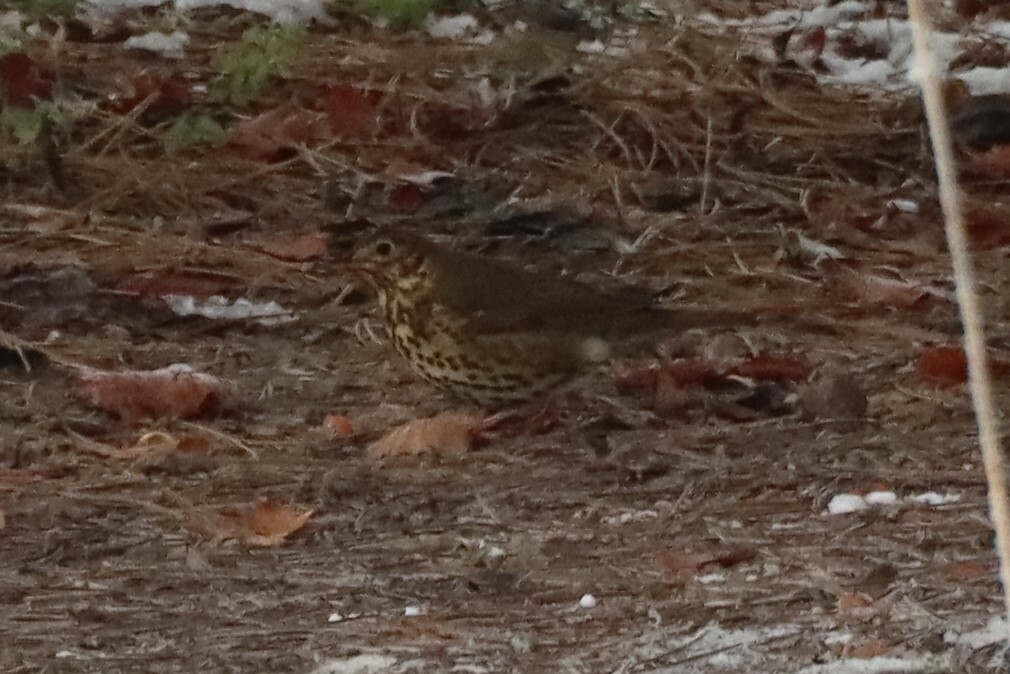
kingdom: Animalia
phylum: Chordata
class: Aves
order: Passeriformes
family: Turdidae
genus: Turdus
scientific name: Turdus philomelos
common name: Song thrush
